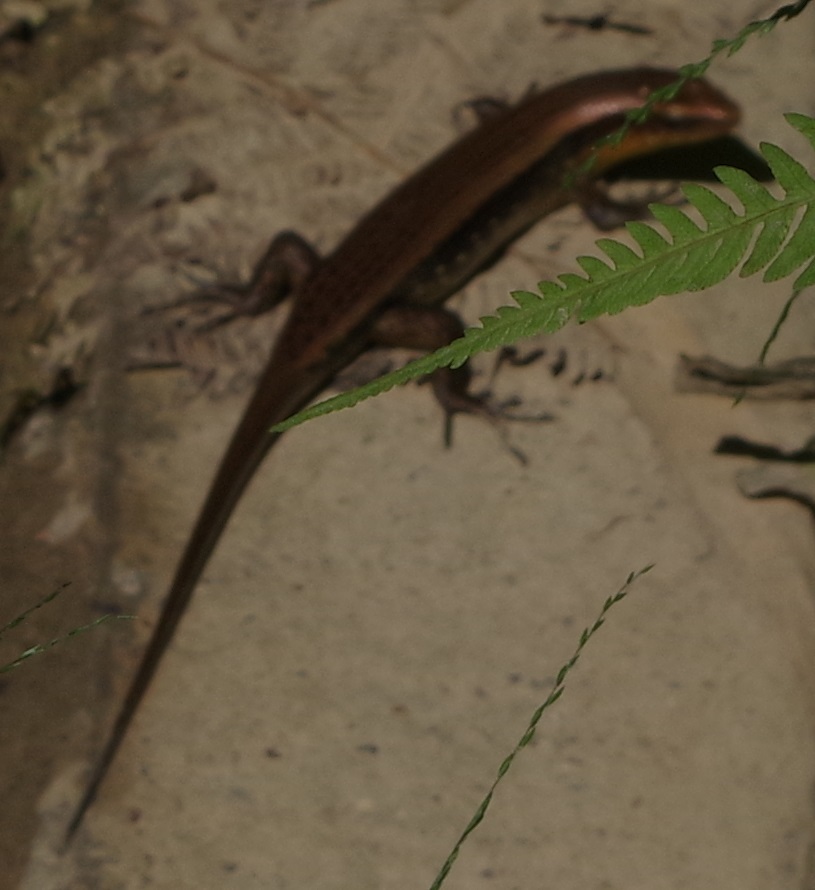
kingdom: Animalia
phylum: Chordata
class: Squamata
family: Scincidae
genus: Eutropis
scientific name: Eutropis multifasciata
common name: Common mabuya
